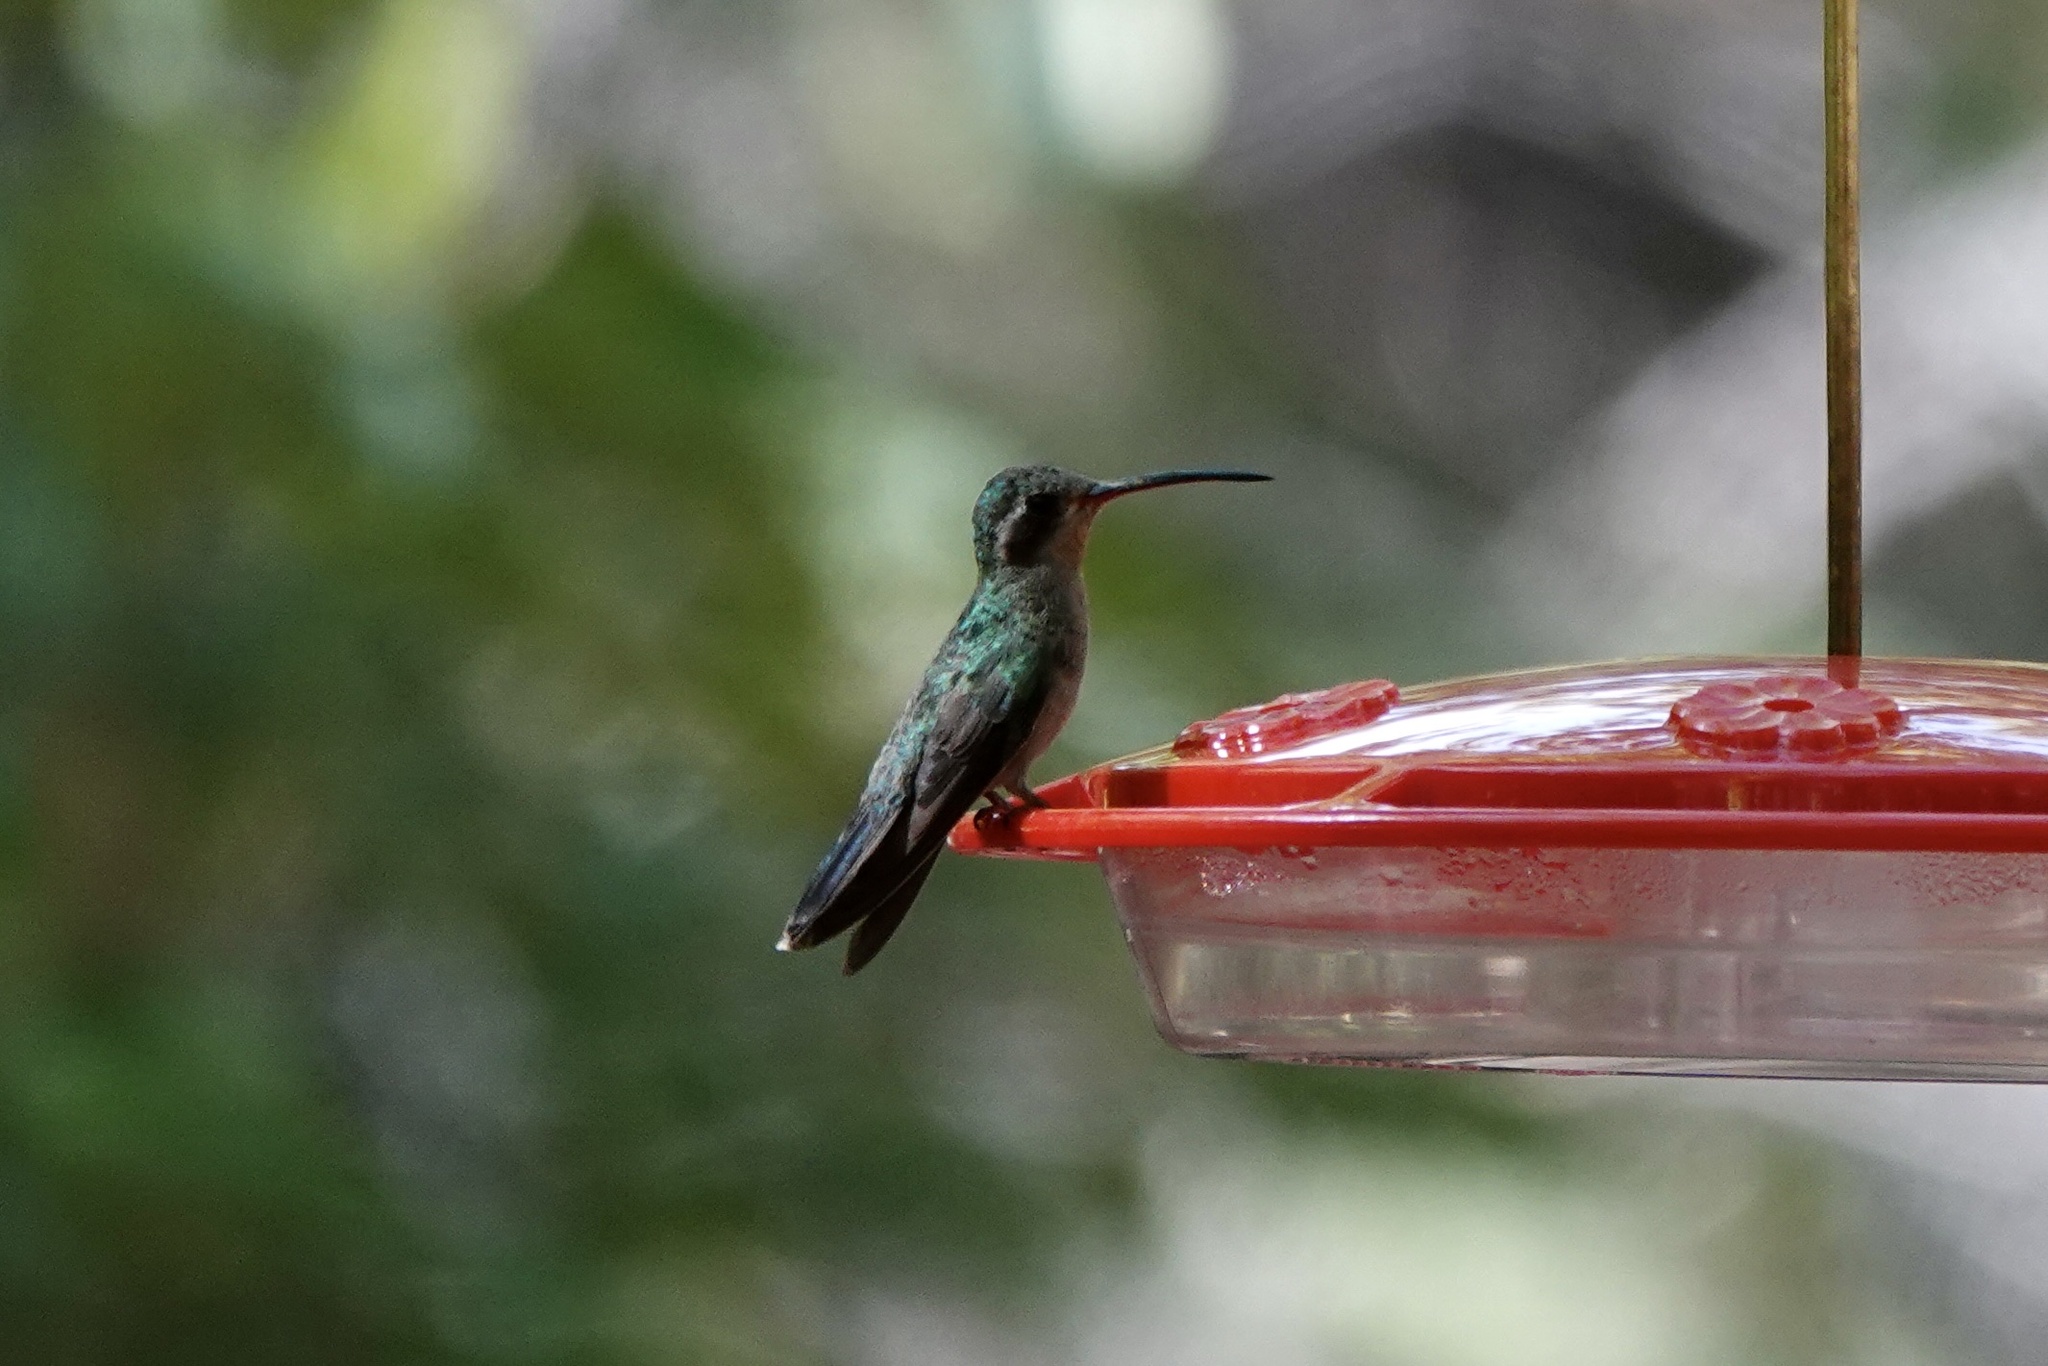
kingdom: Animalia
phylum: Chordata
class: Aves
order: Apodiformes
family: Trochilidae
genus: Cynanthus
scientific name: Cynanthus latirostris
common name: Broad-billed hummingbird
